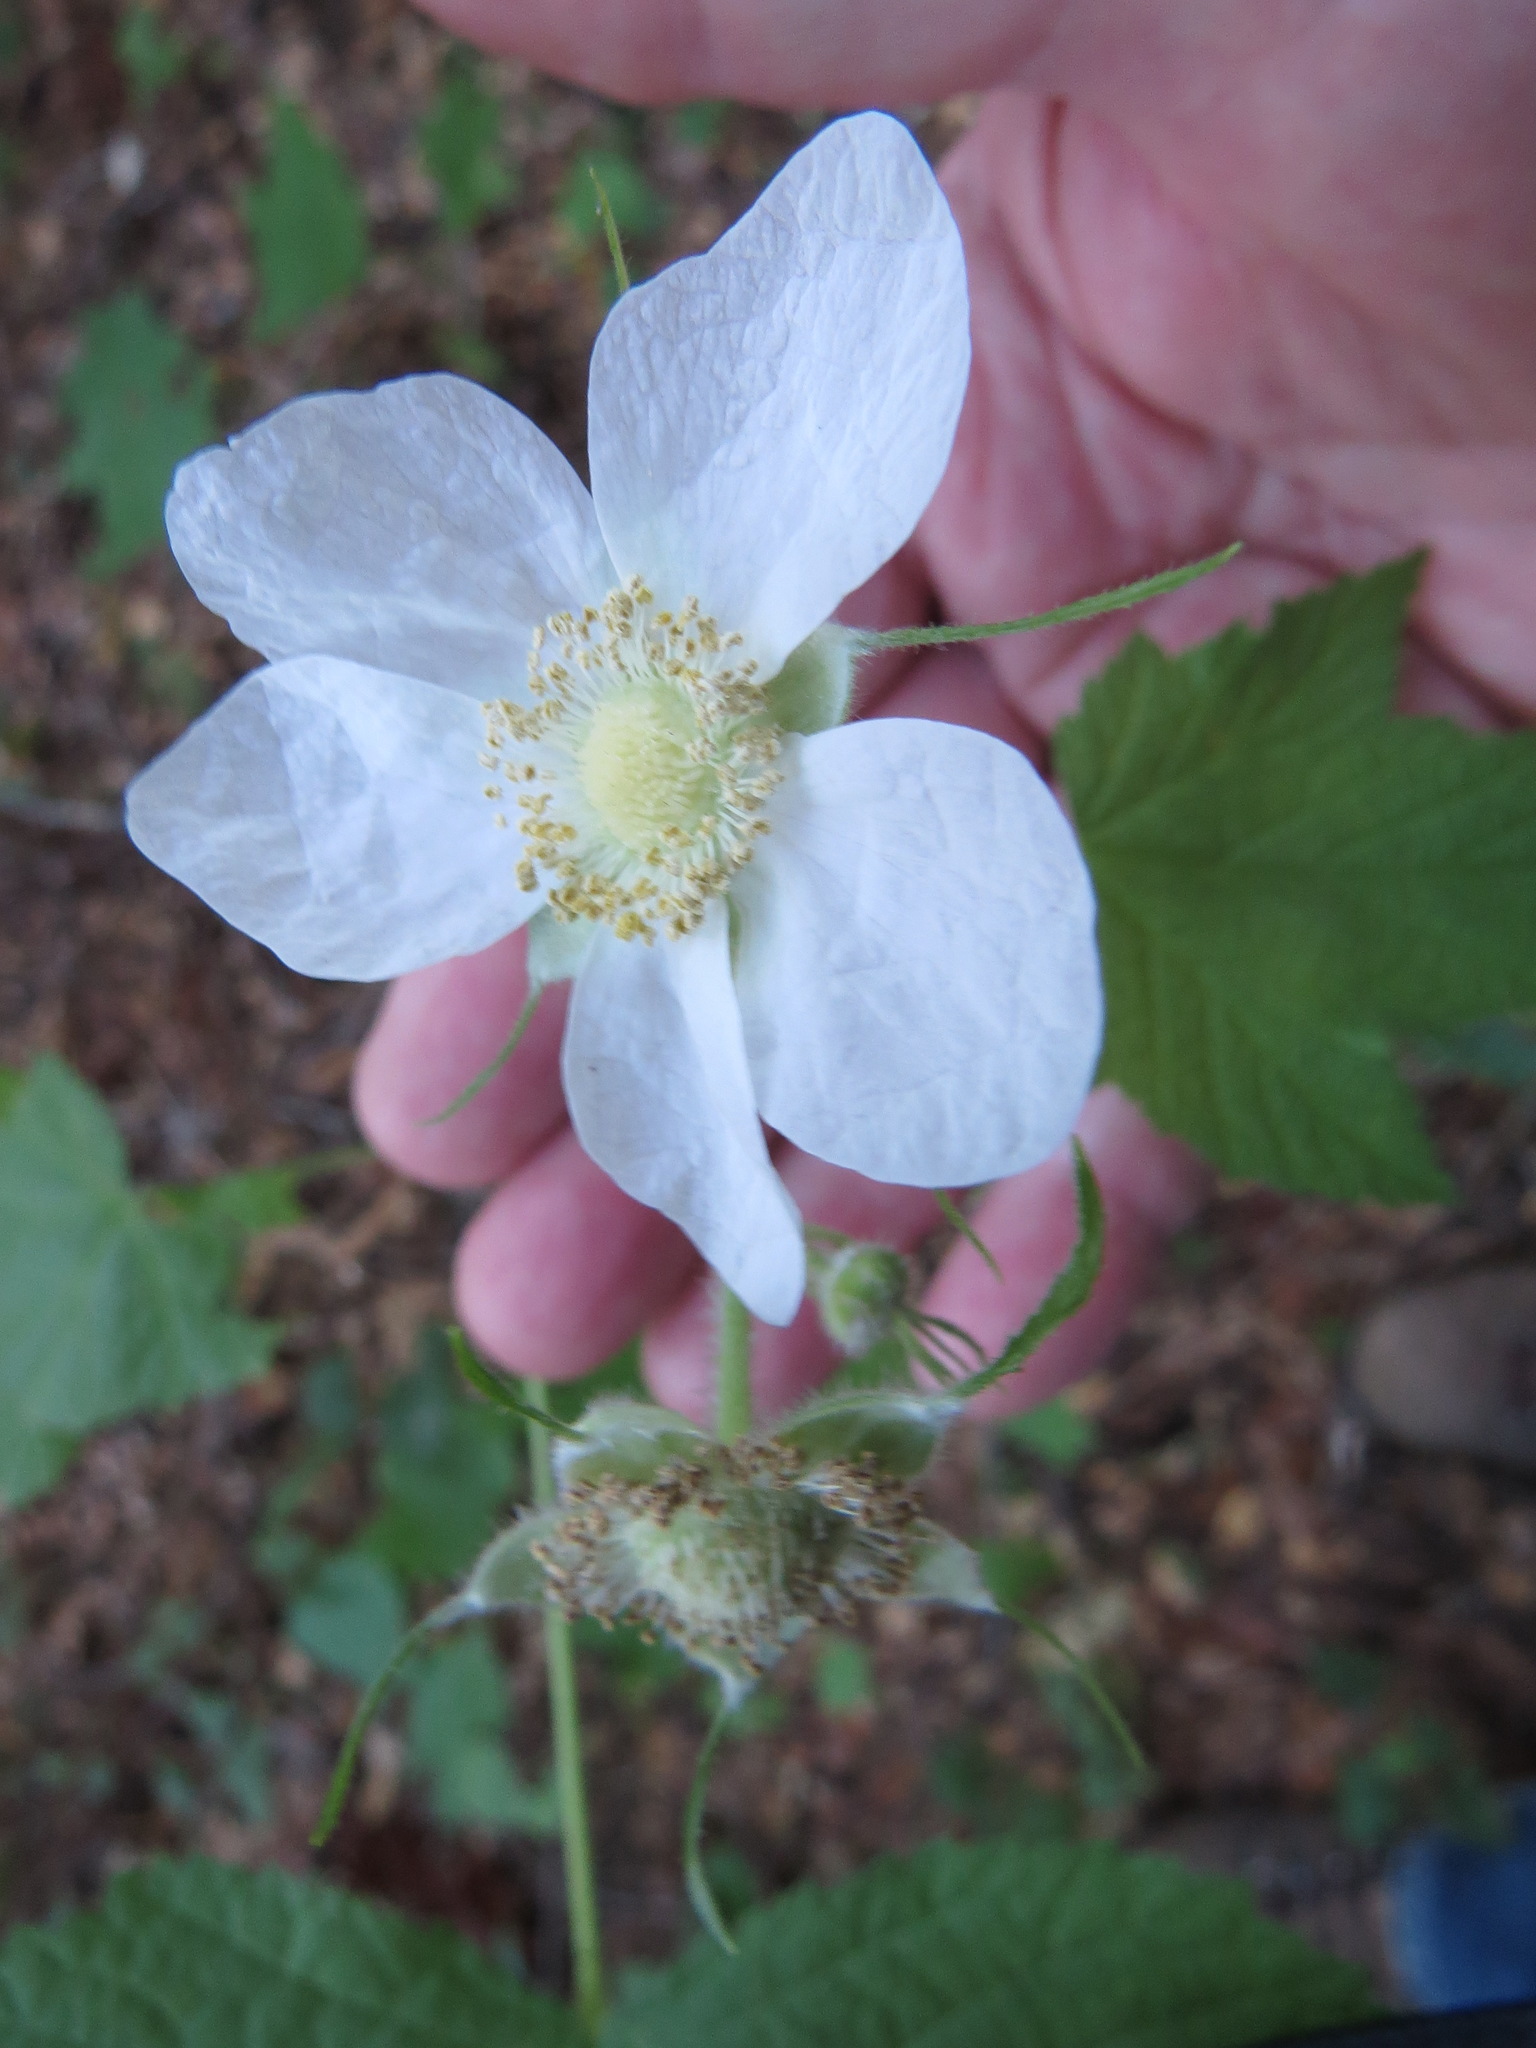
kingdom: Plantae
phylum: Tracheophyta
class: Magnoliopsida
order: Rosales
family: Rosaceae
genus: Rubus
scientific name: Rubus parviflorus
